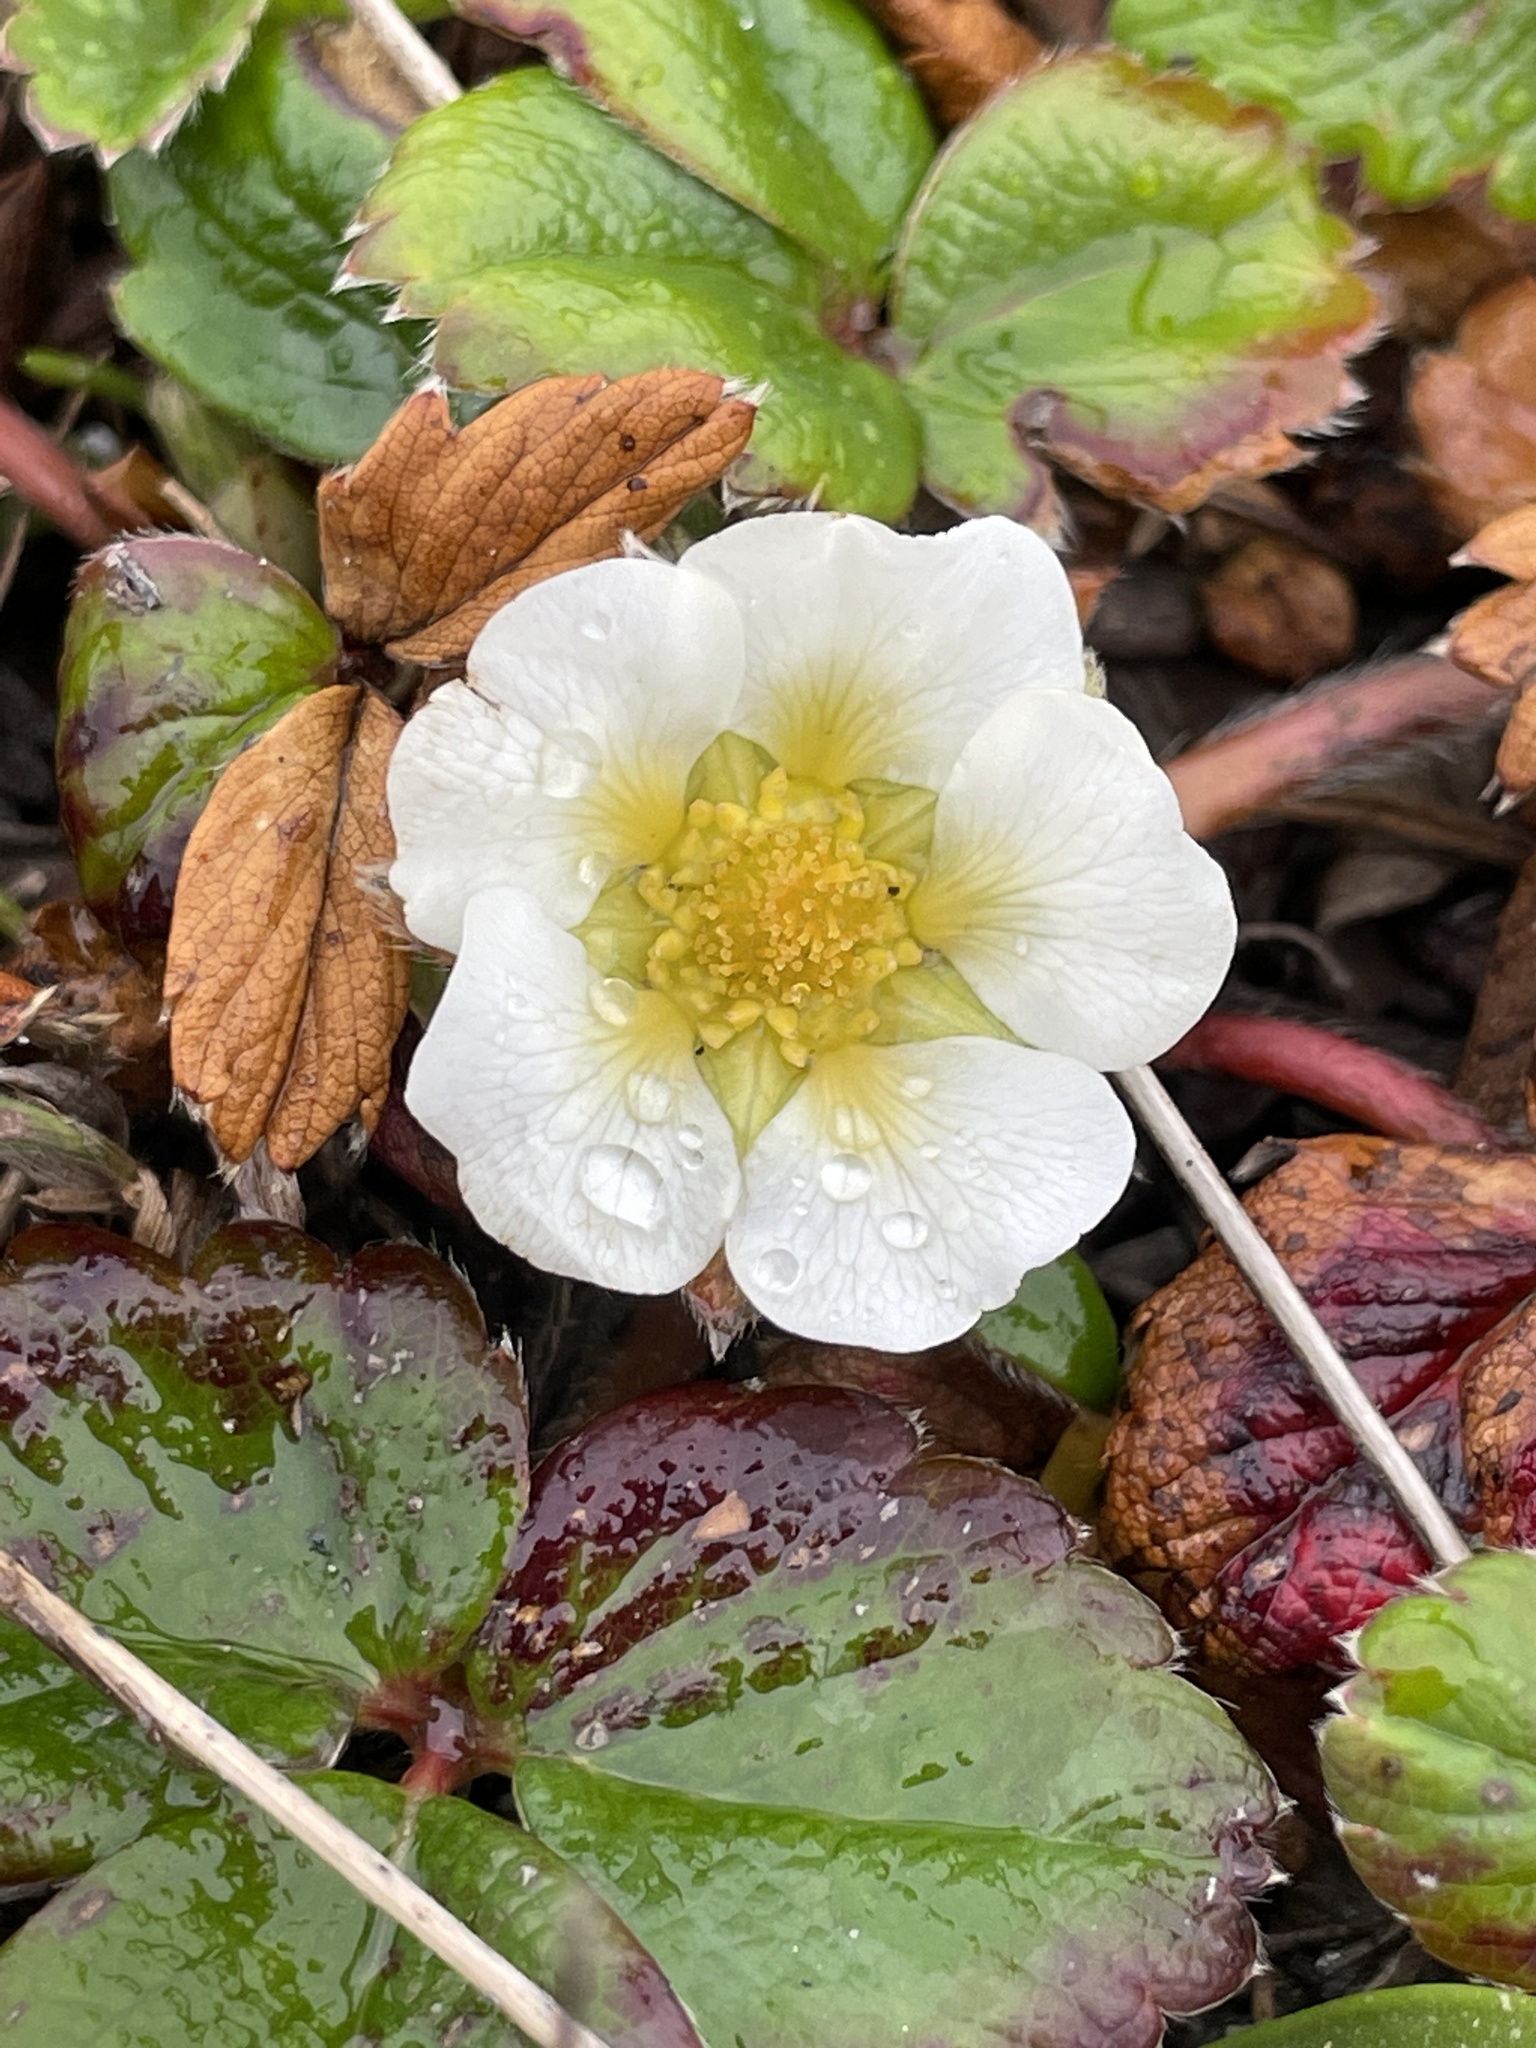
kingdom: Plantae
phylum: Tracheophyta
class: Magnoliopsida
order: Rosales
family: Rosaceae
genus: Fragaria
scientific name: Fragaria chiloensis
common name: Beach strawberry
